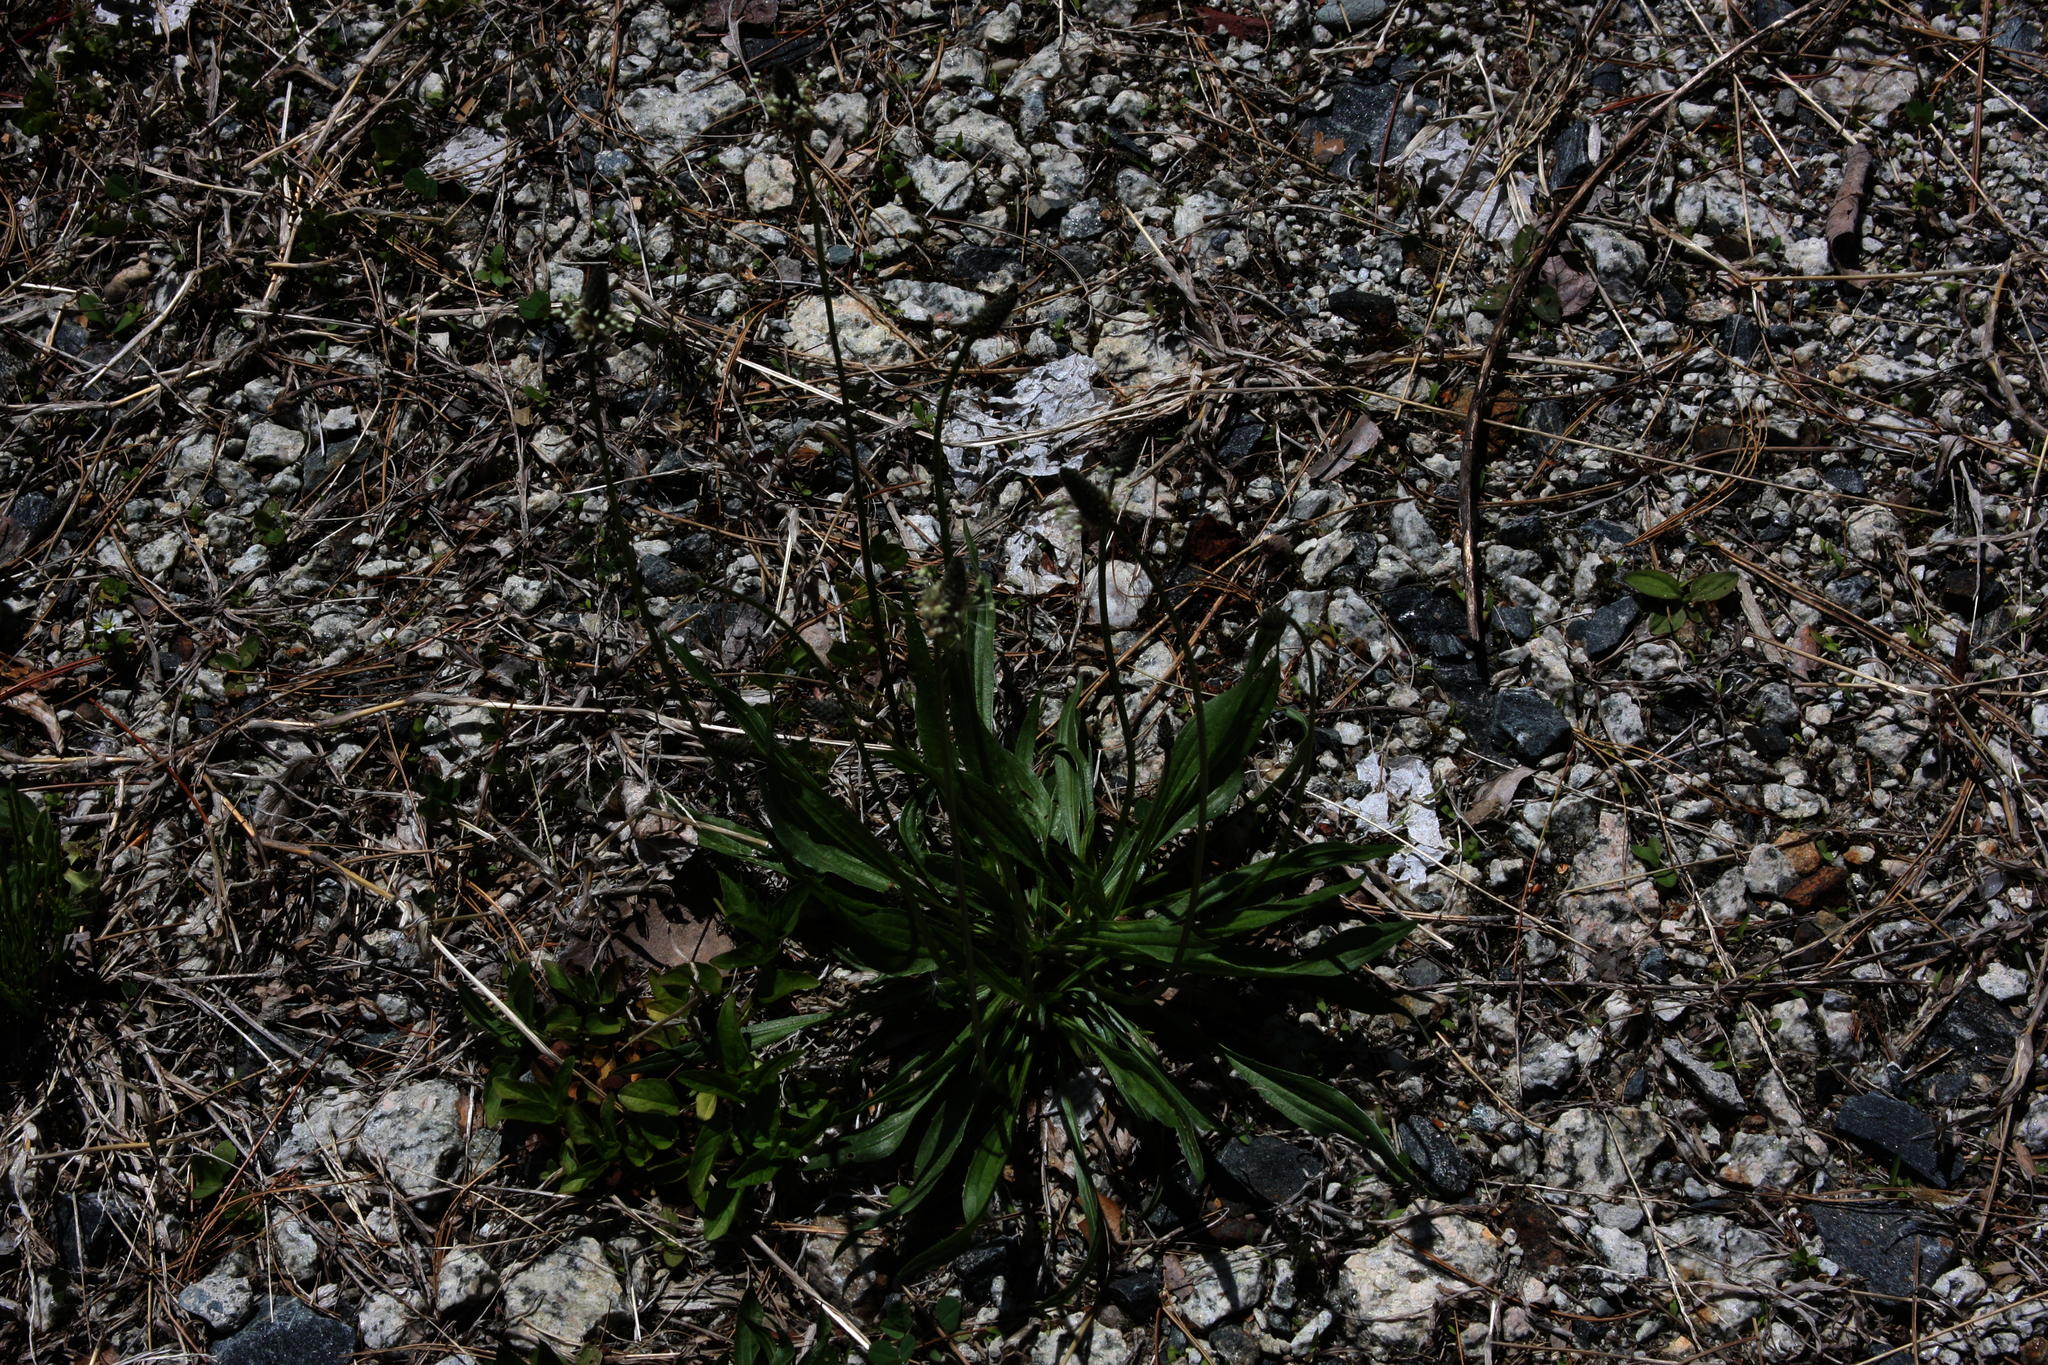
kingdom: Plantae
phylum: Tracheophyta
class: Magnoliopsida
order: Lamiales
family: Plantaginaceae
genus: Plantago
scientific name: Plantago lanceolata
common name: Ribwort plantain
